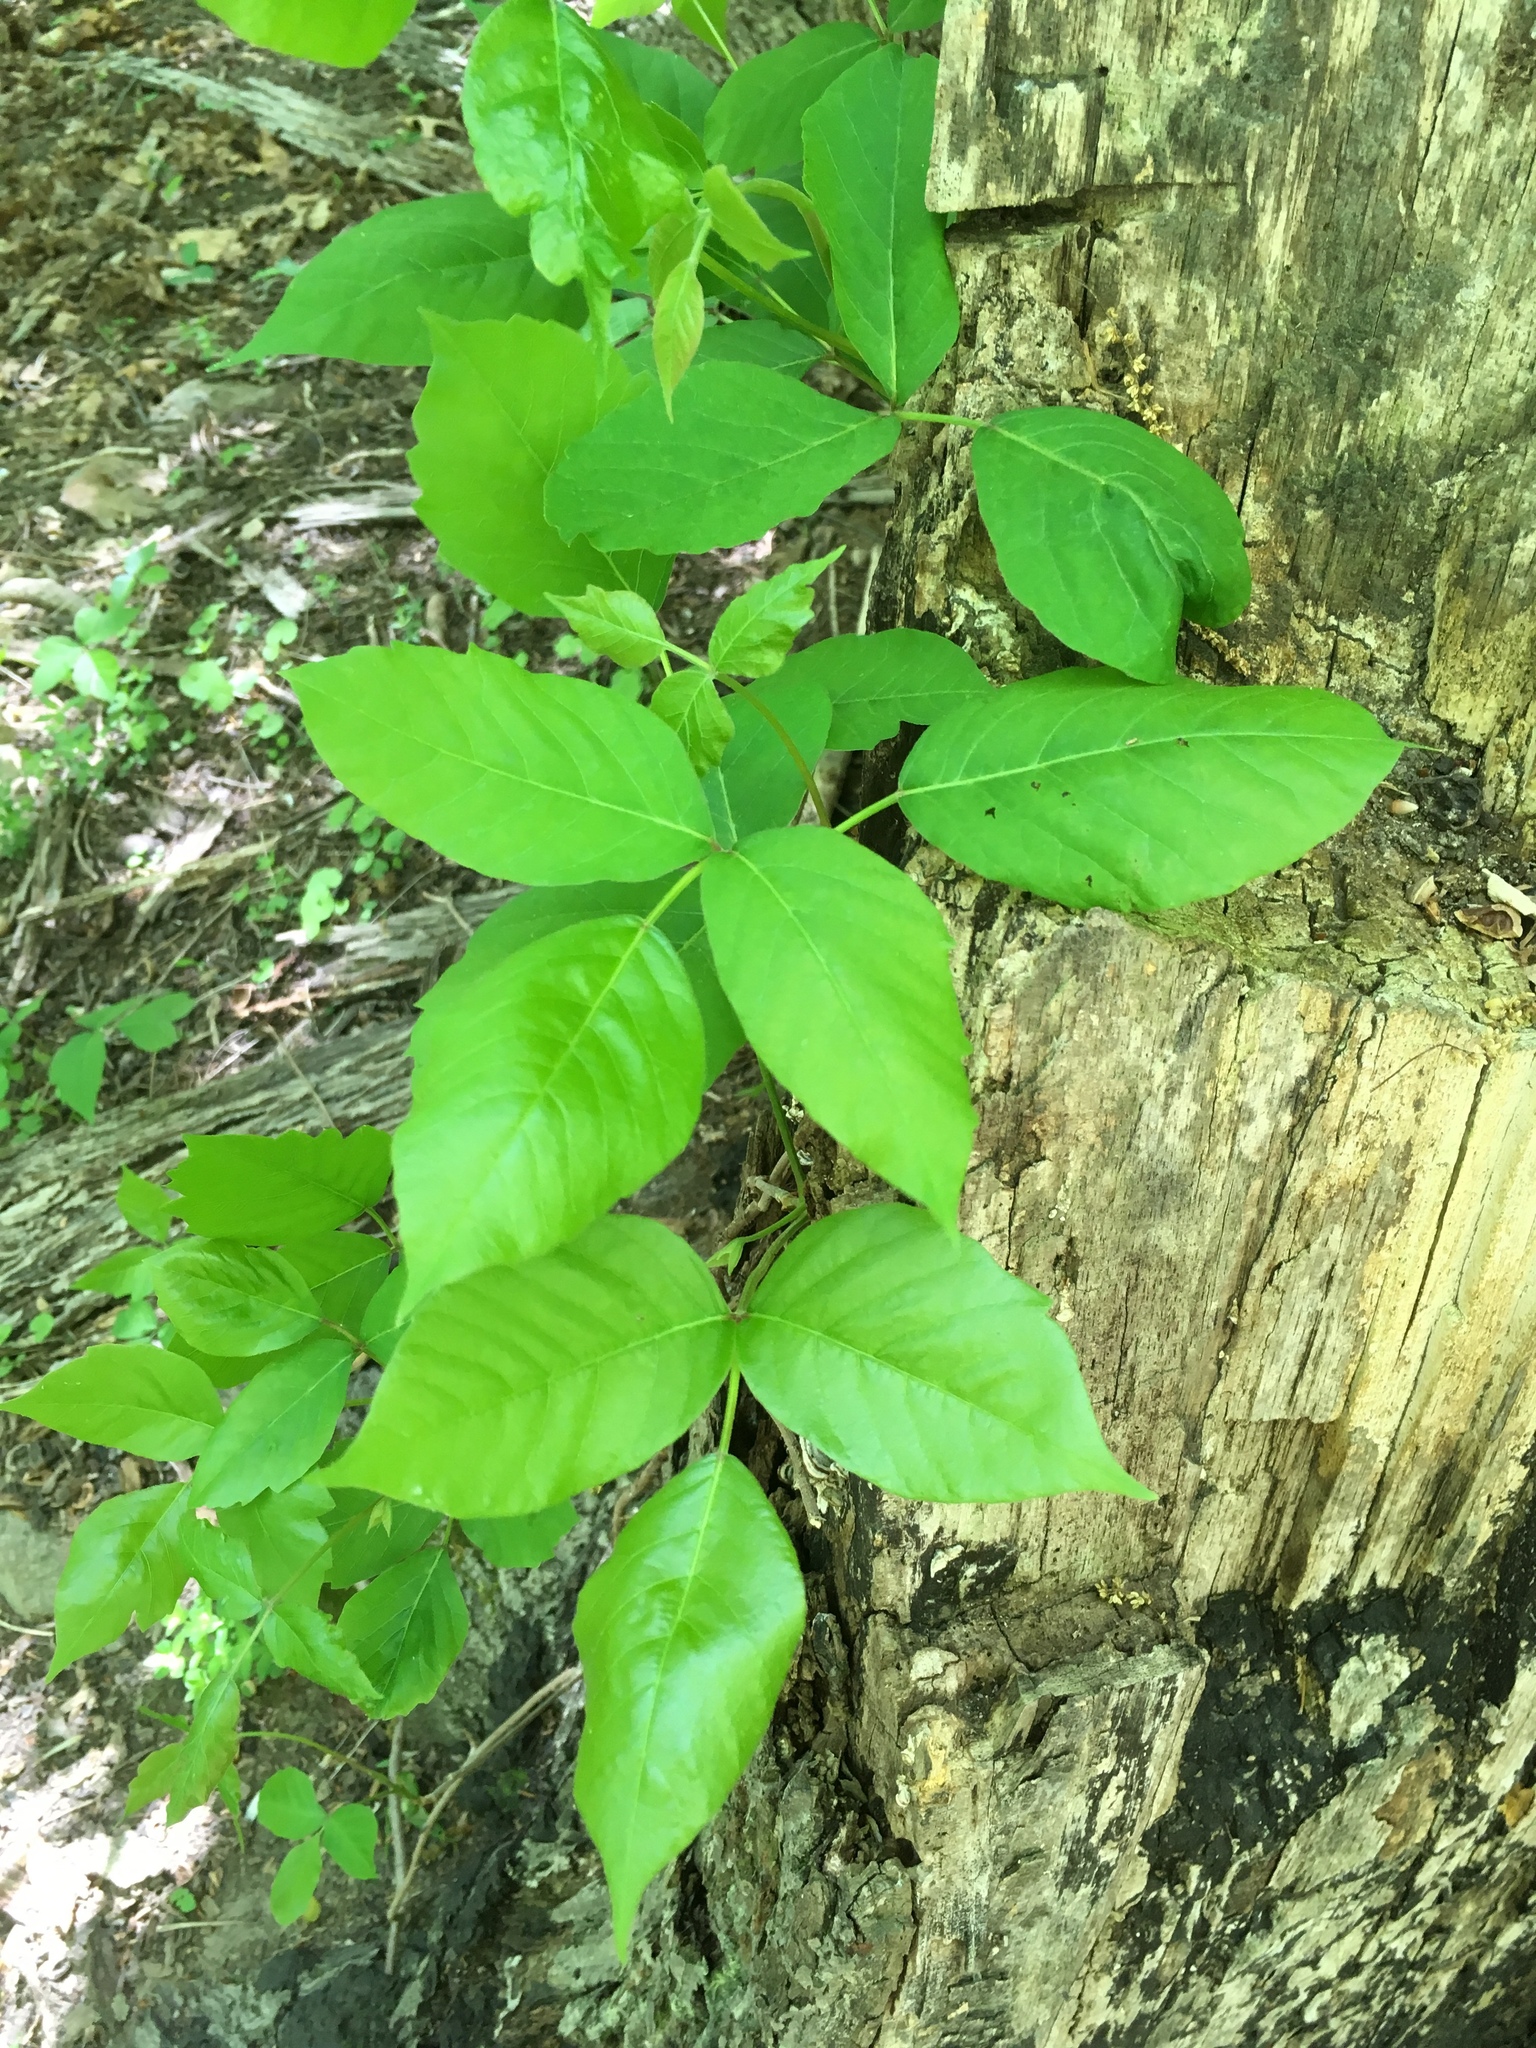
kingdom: Plantae
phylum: Tracheophyta
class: Magnoliopsida
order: Sapindales
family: Anacardiaceae
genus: Toxicodendron
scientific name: Toxicodendron radicans
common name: Poison ivy
